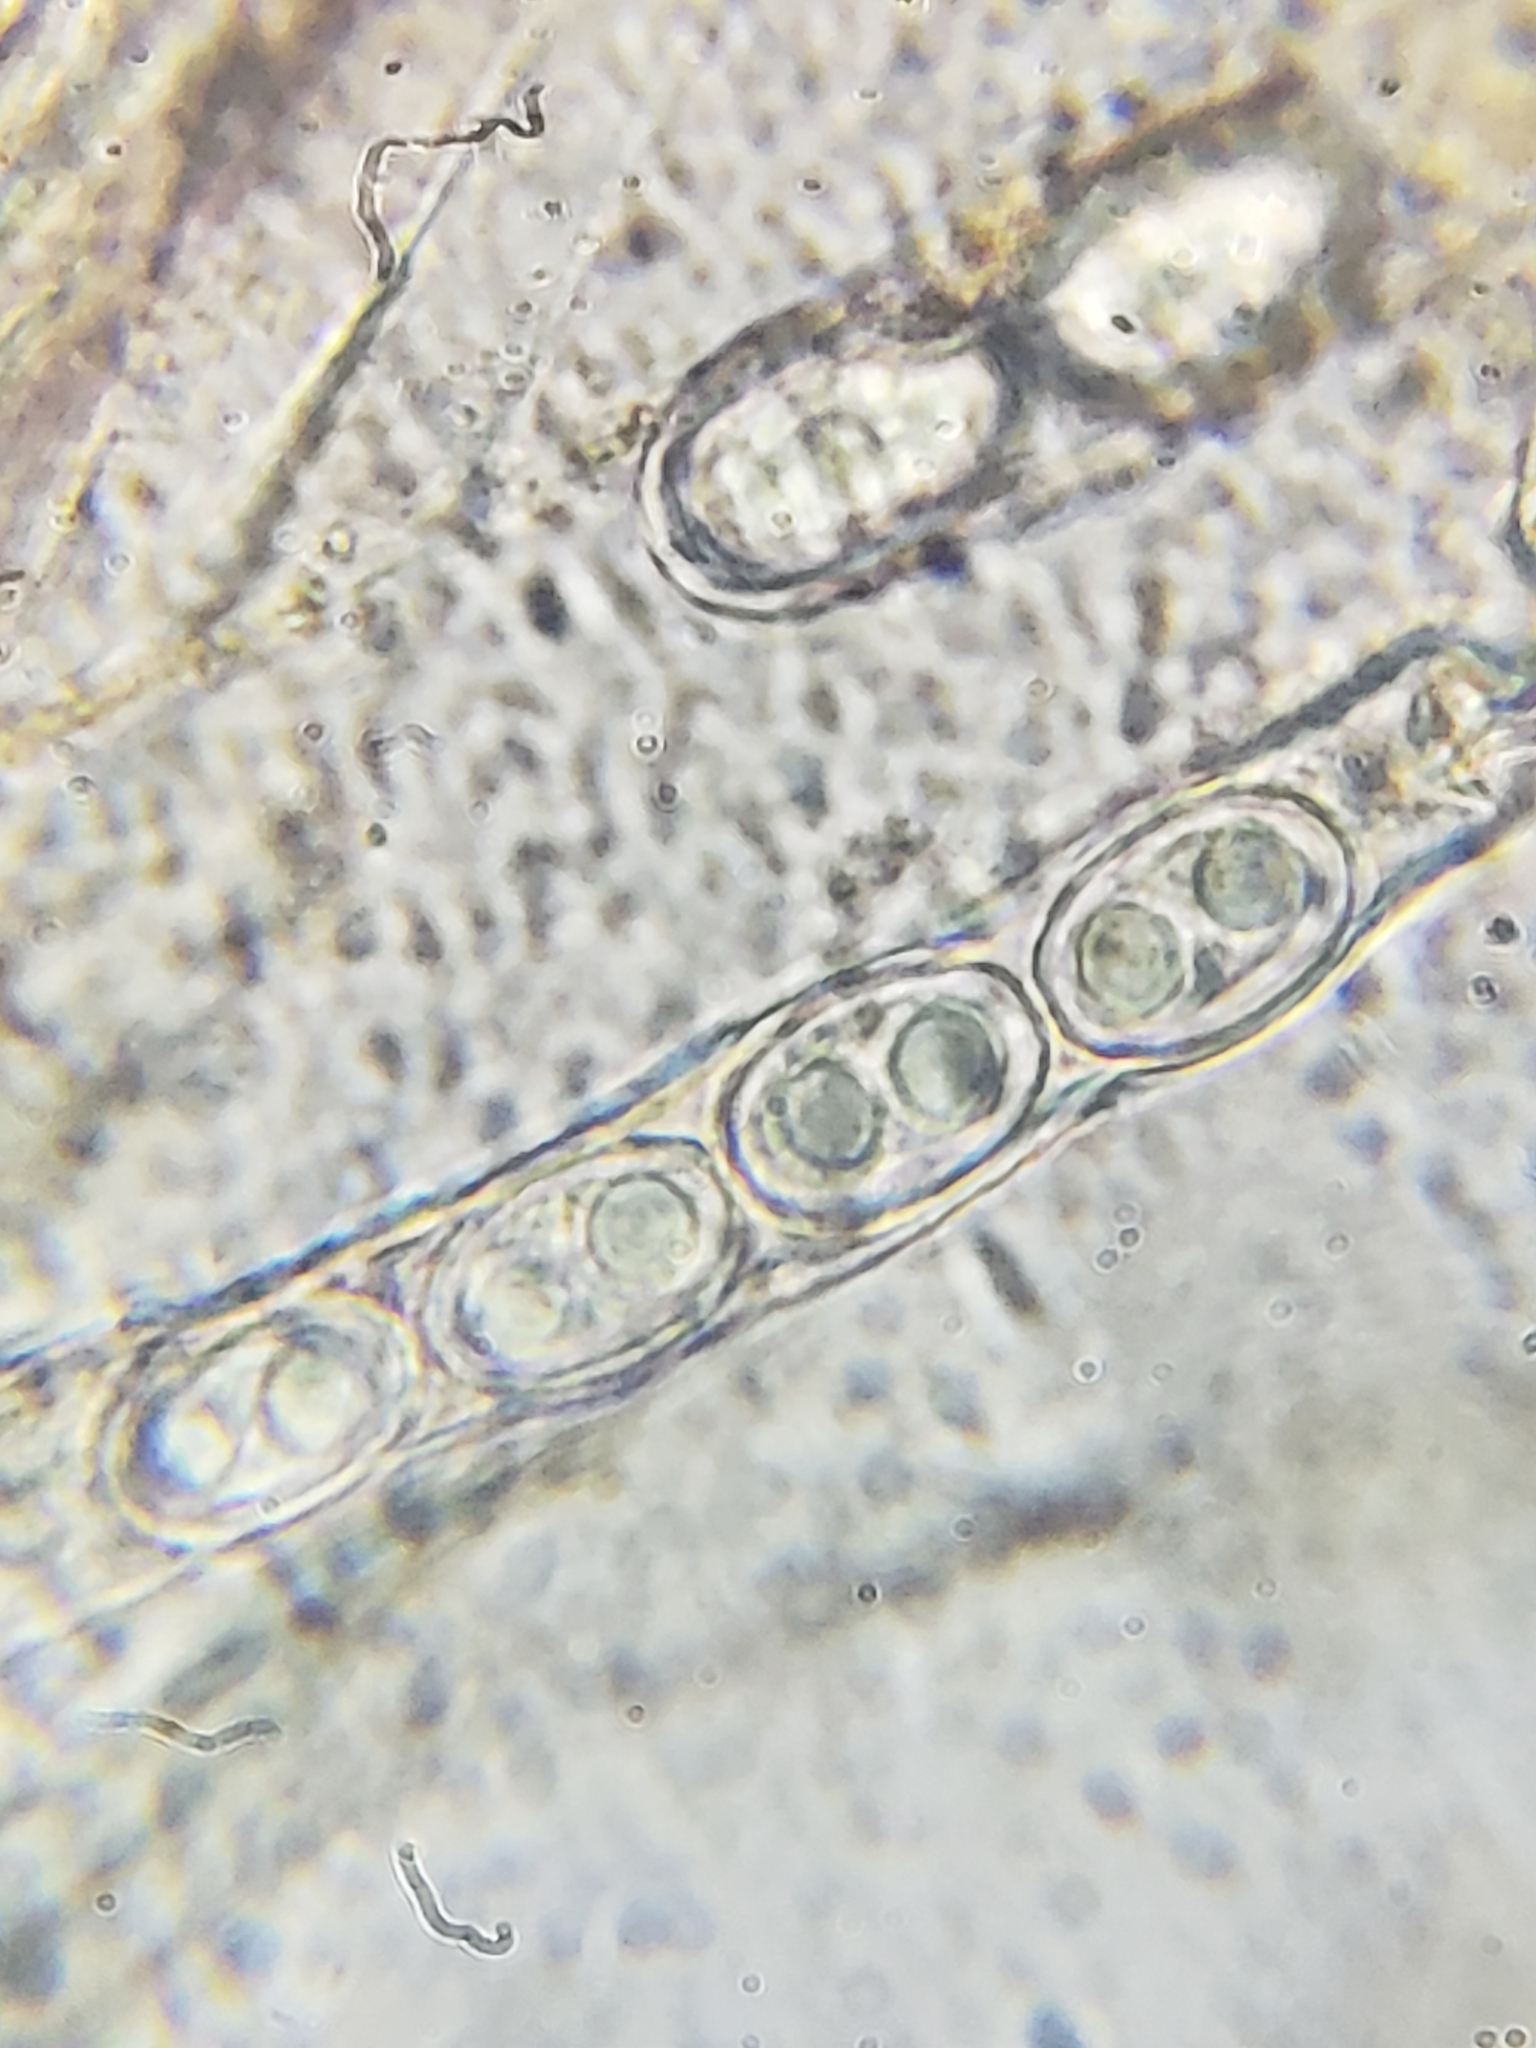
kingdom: Fungi
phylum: Ascomycota
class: Pezizomycetes
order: Pezizales
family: Pyronemataceae
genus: Scutellinia
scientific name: Scutellinia setosa
